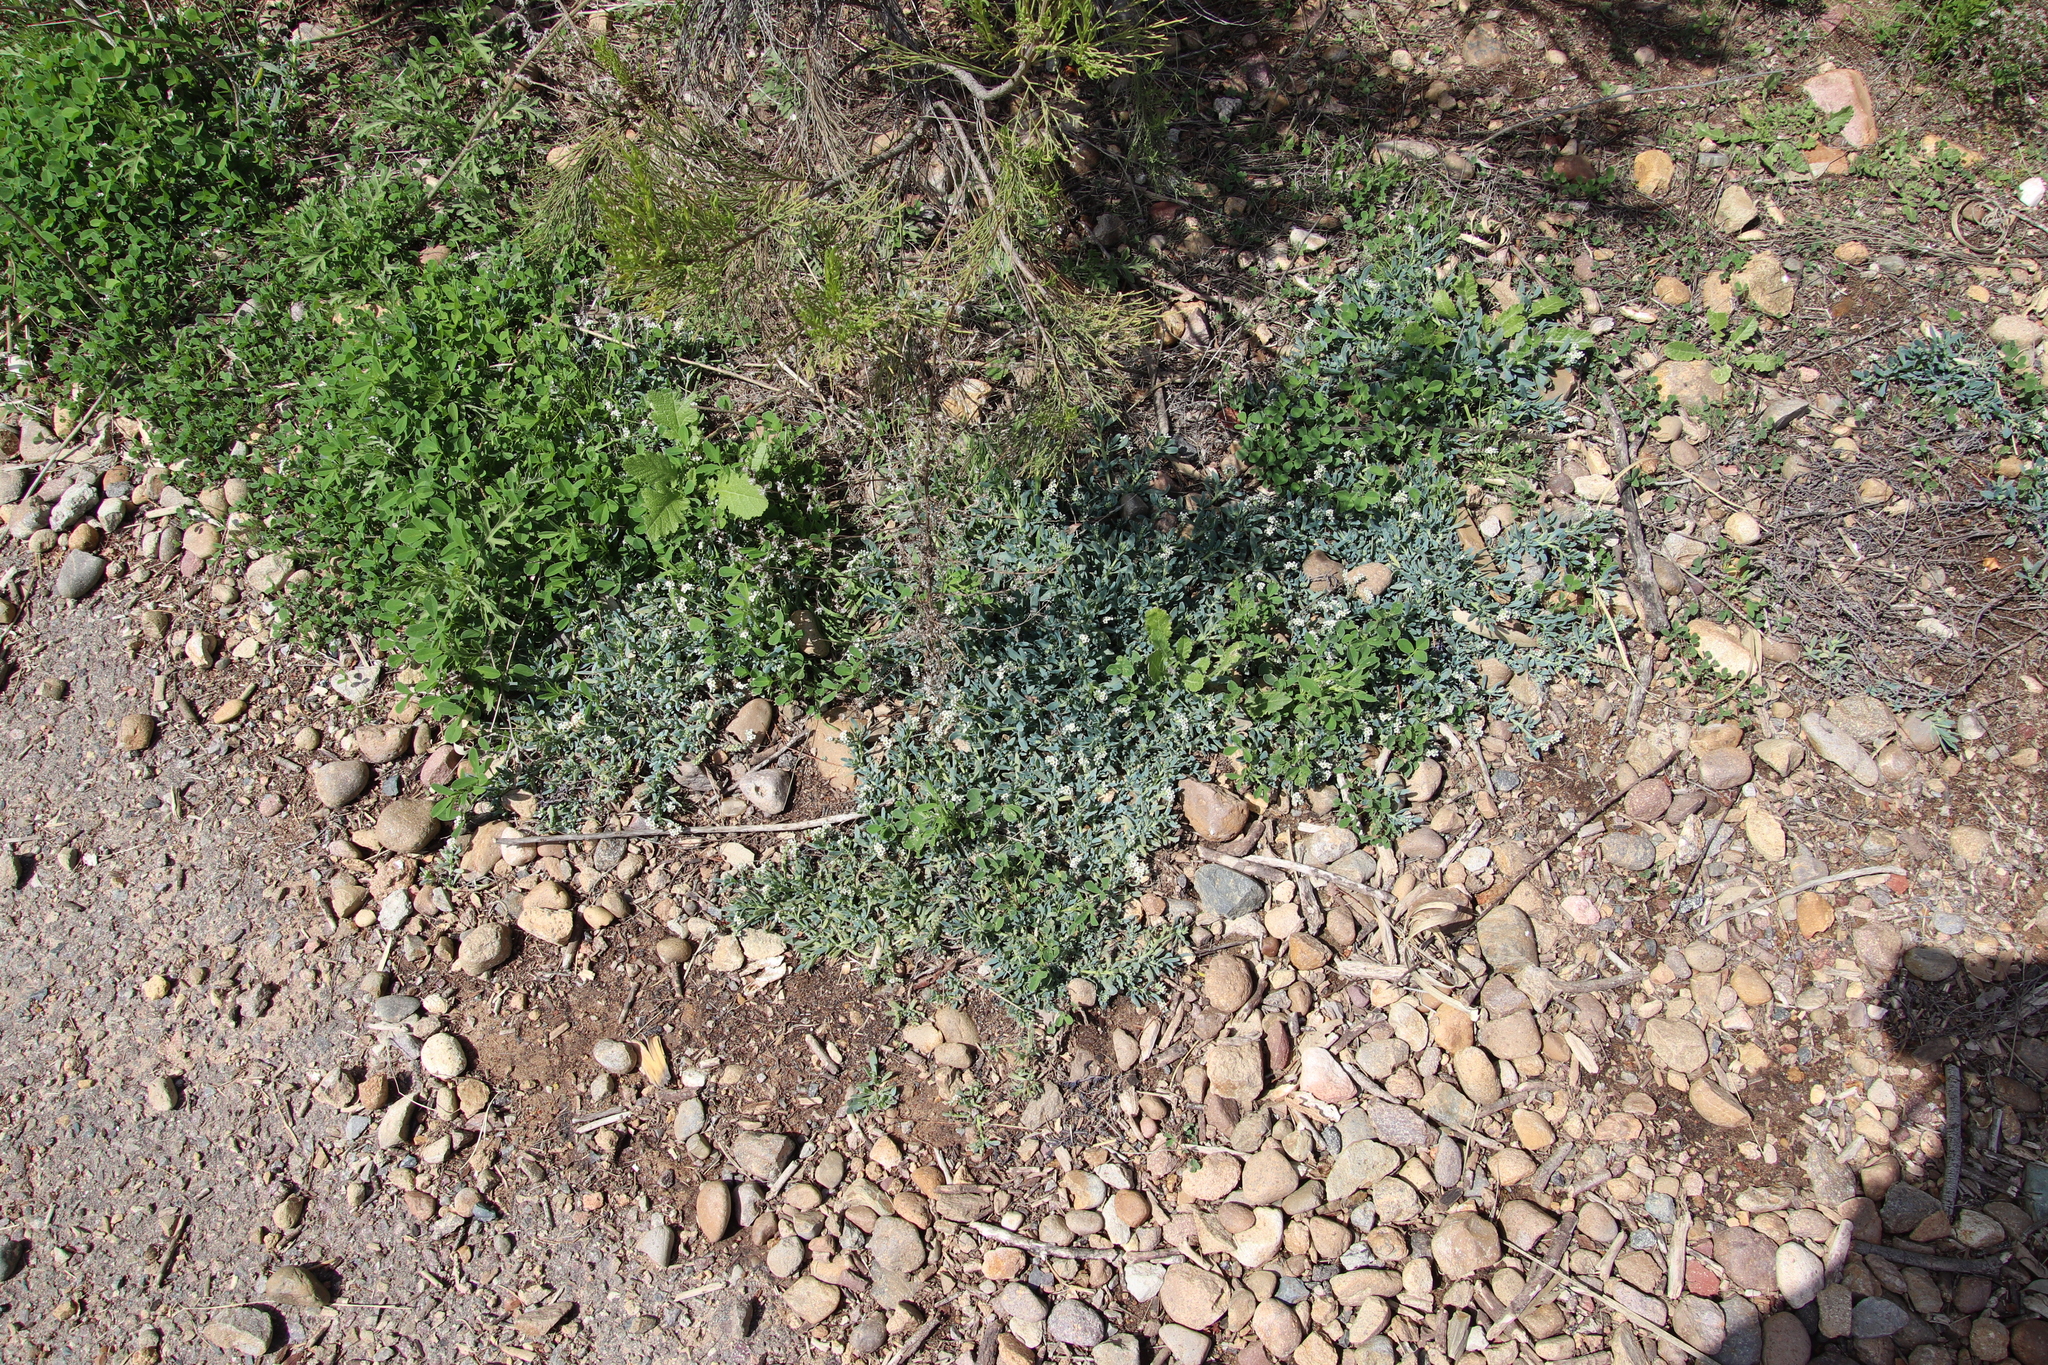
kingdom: Plantae
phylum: Tracheophyta
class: Magnoliopsida
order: Boraginales
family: Heliotropiaceae
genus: Heliotropium
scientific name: Heliotropium curassavicum
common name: Seaside heliotrope
